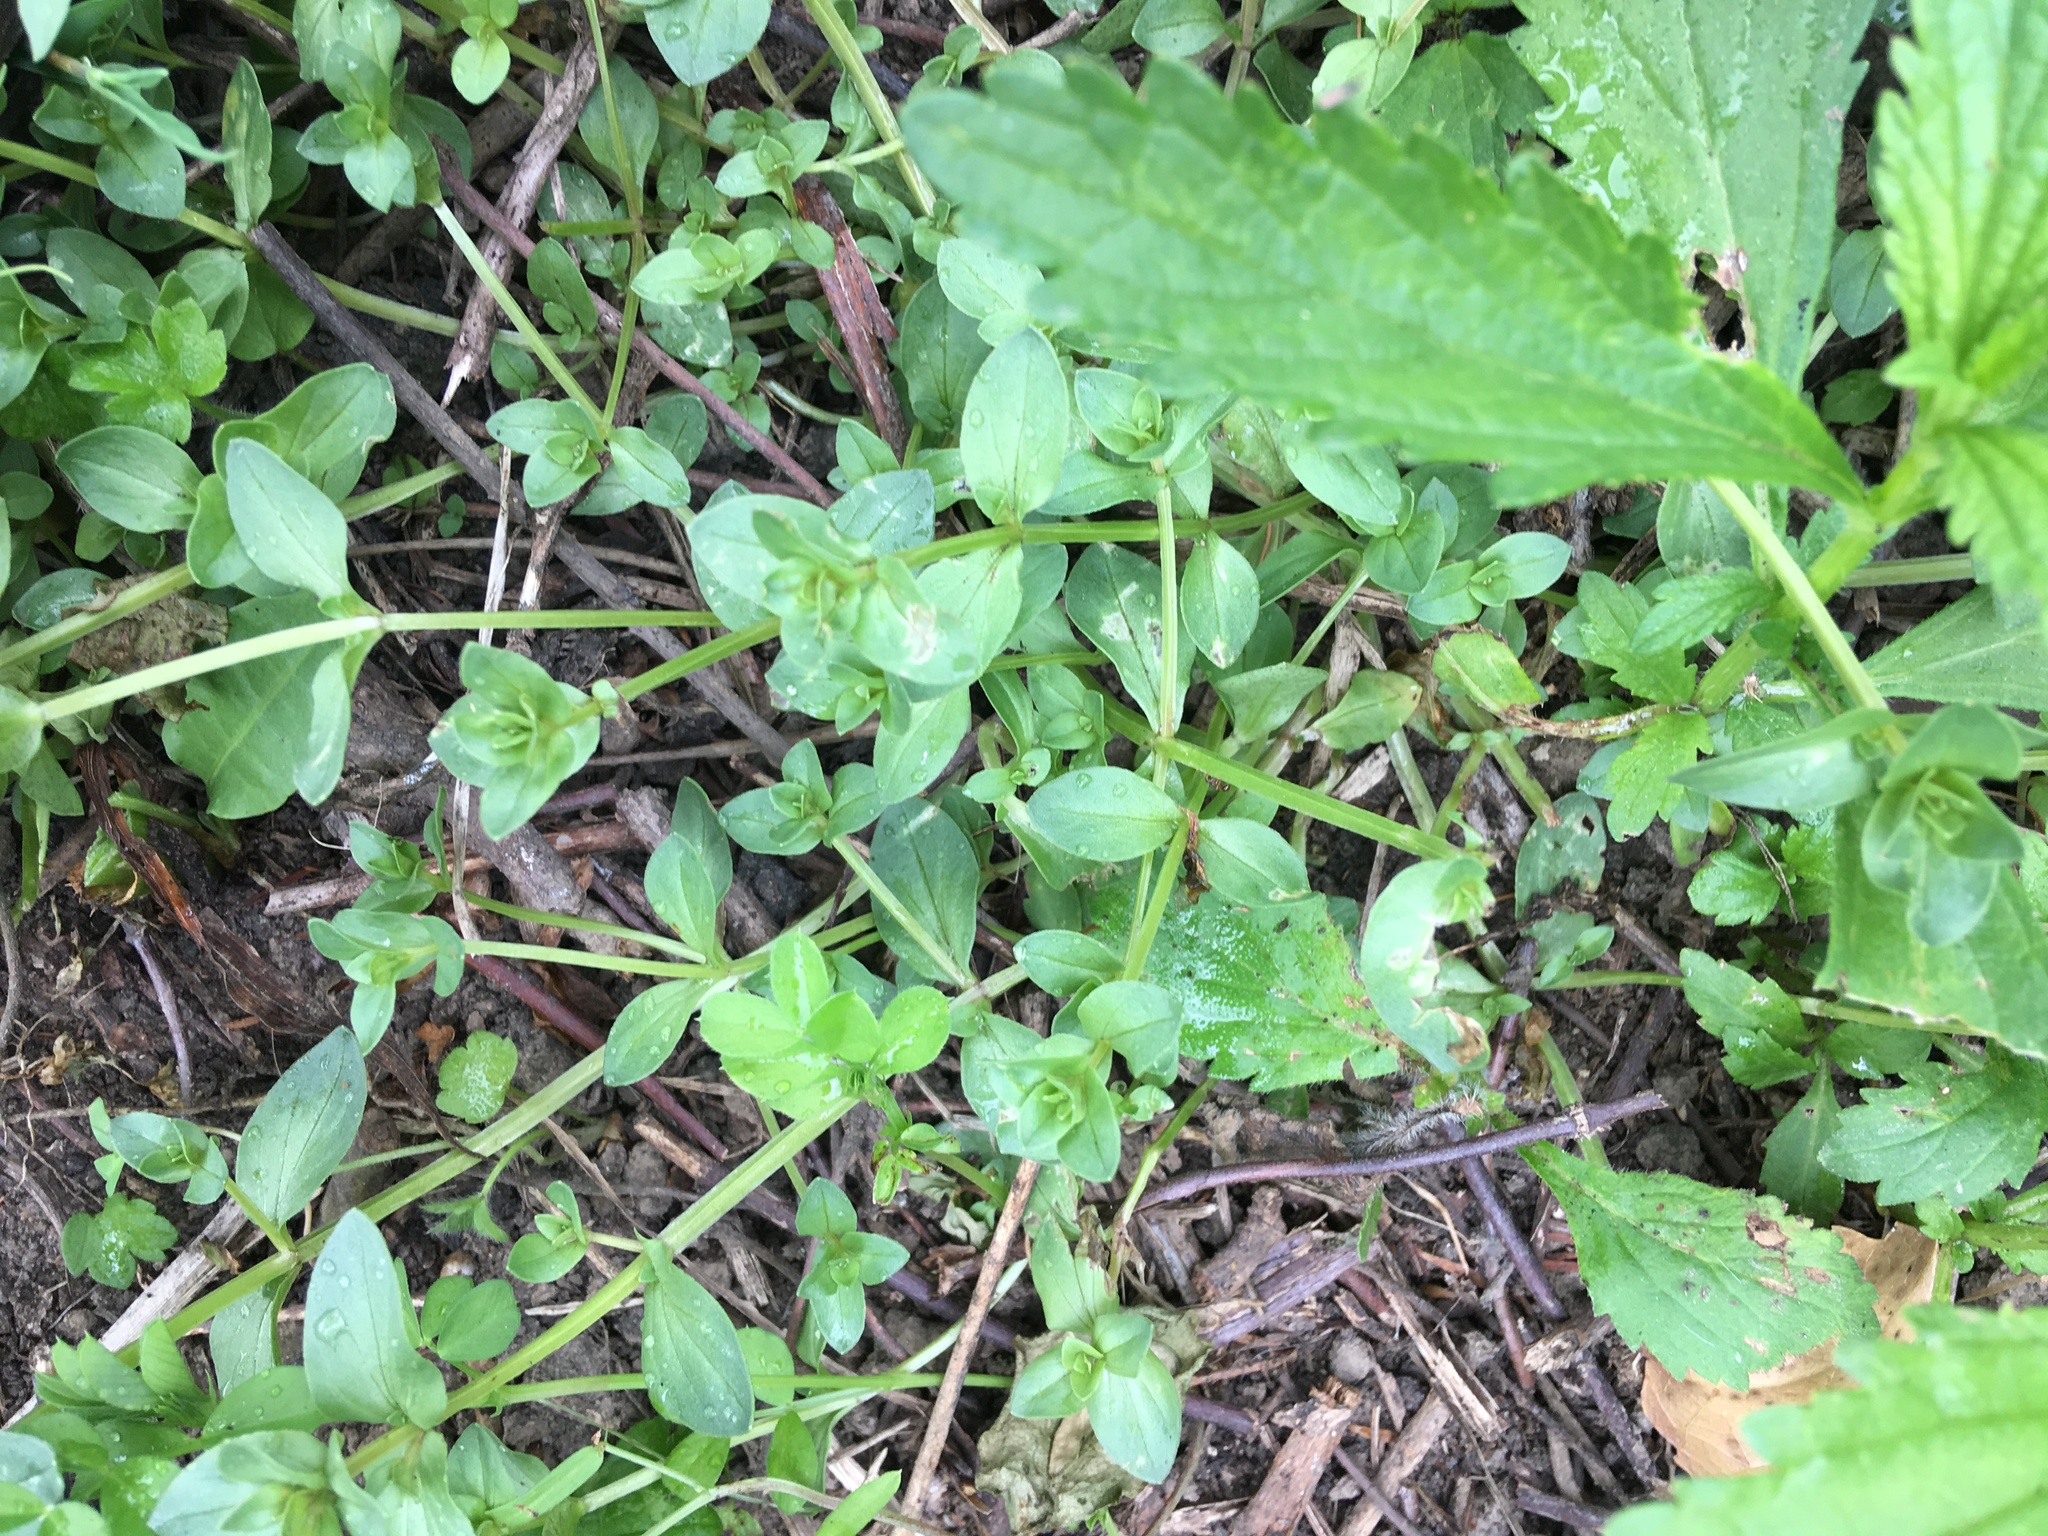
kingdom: Plantae
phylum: Tracheophyta
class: Magnoliopsida
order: Ericales
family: Primulaceae
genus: Lysimachia
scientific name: Lysimachia arvensis
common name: Scarlet pimpernel
